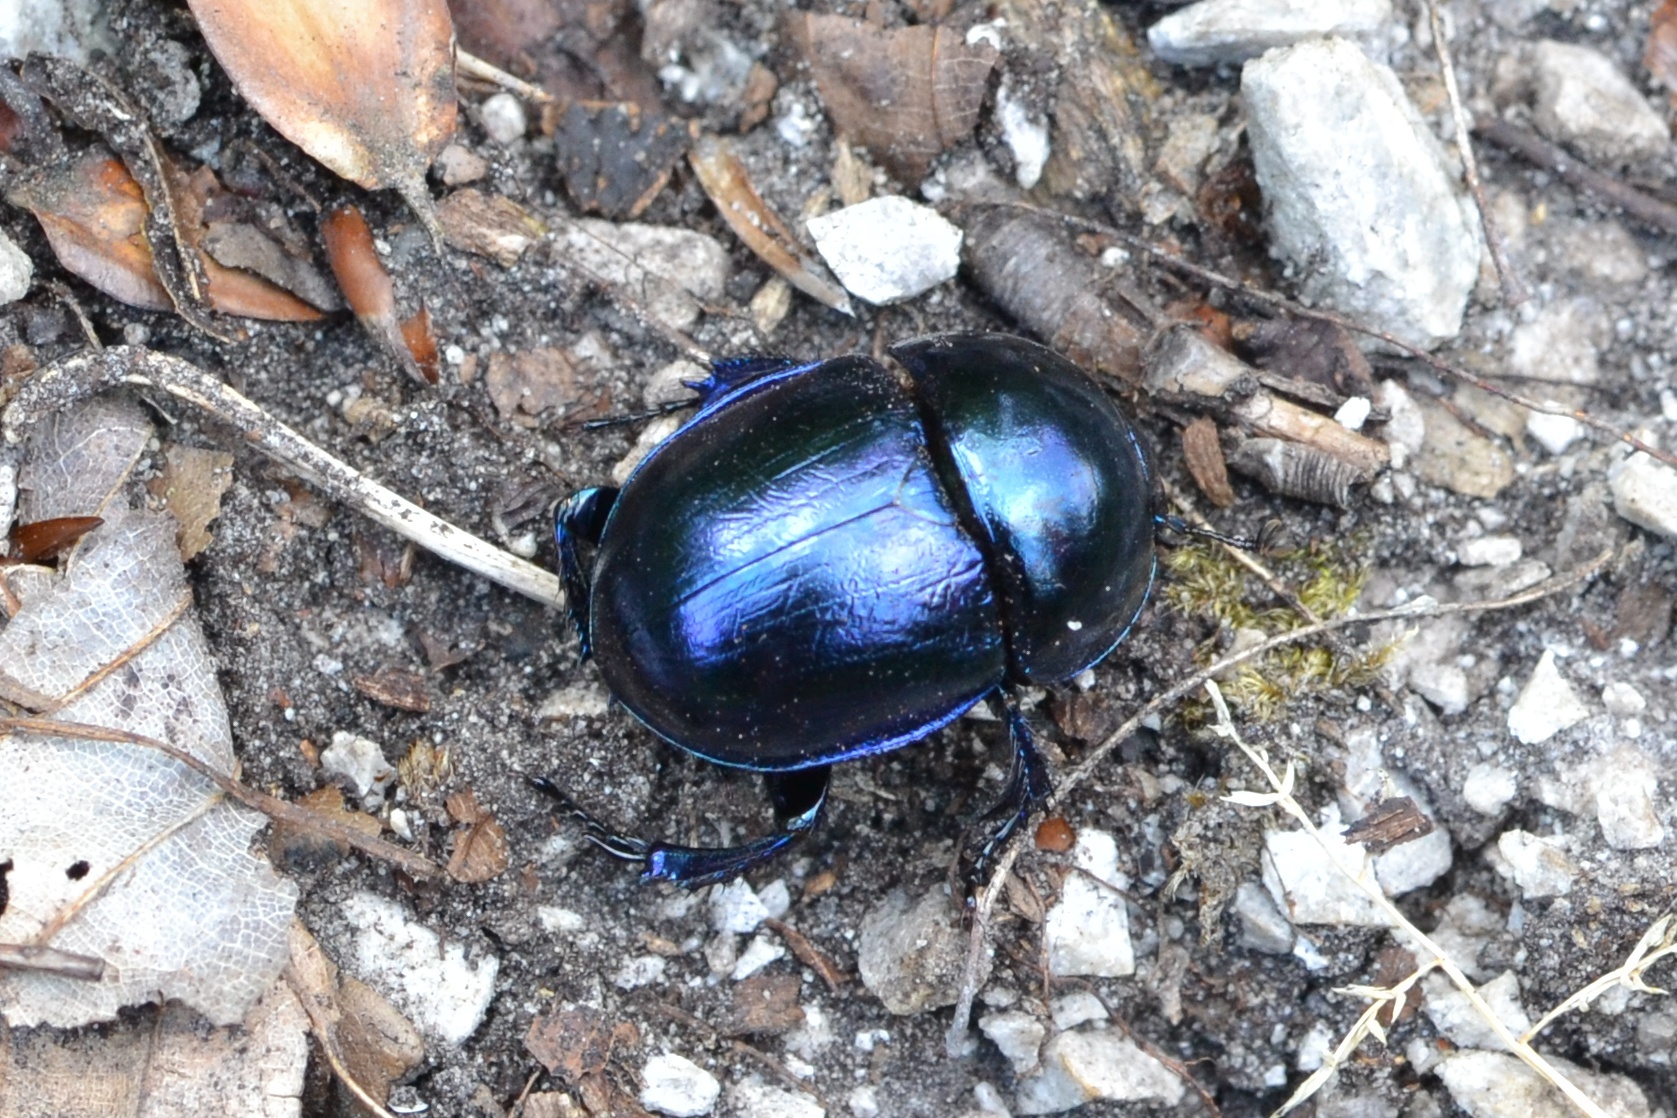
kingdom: Animalia
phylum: Arthropoda
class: Insecta
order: Coleoptera
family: Geotrupidae
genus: Trypocopris
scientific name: Trypocopris vernalis
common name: Spring dumbledor
